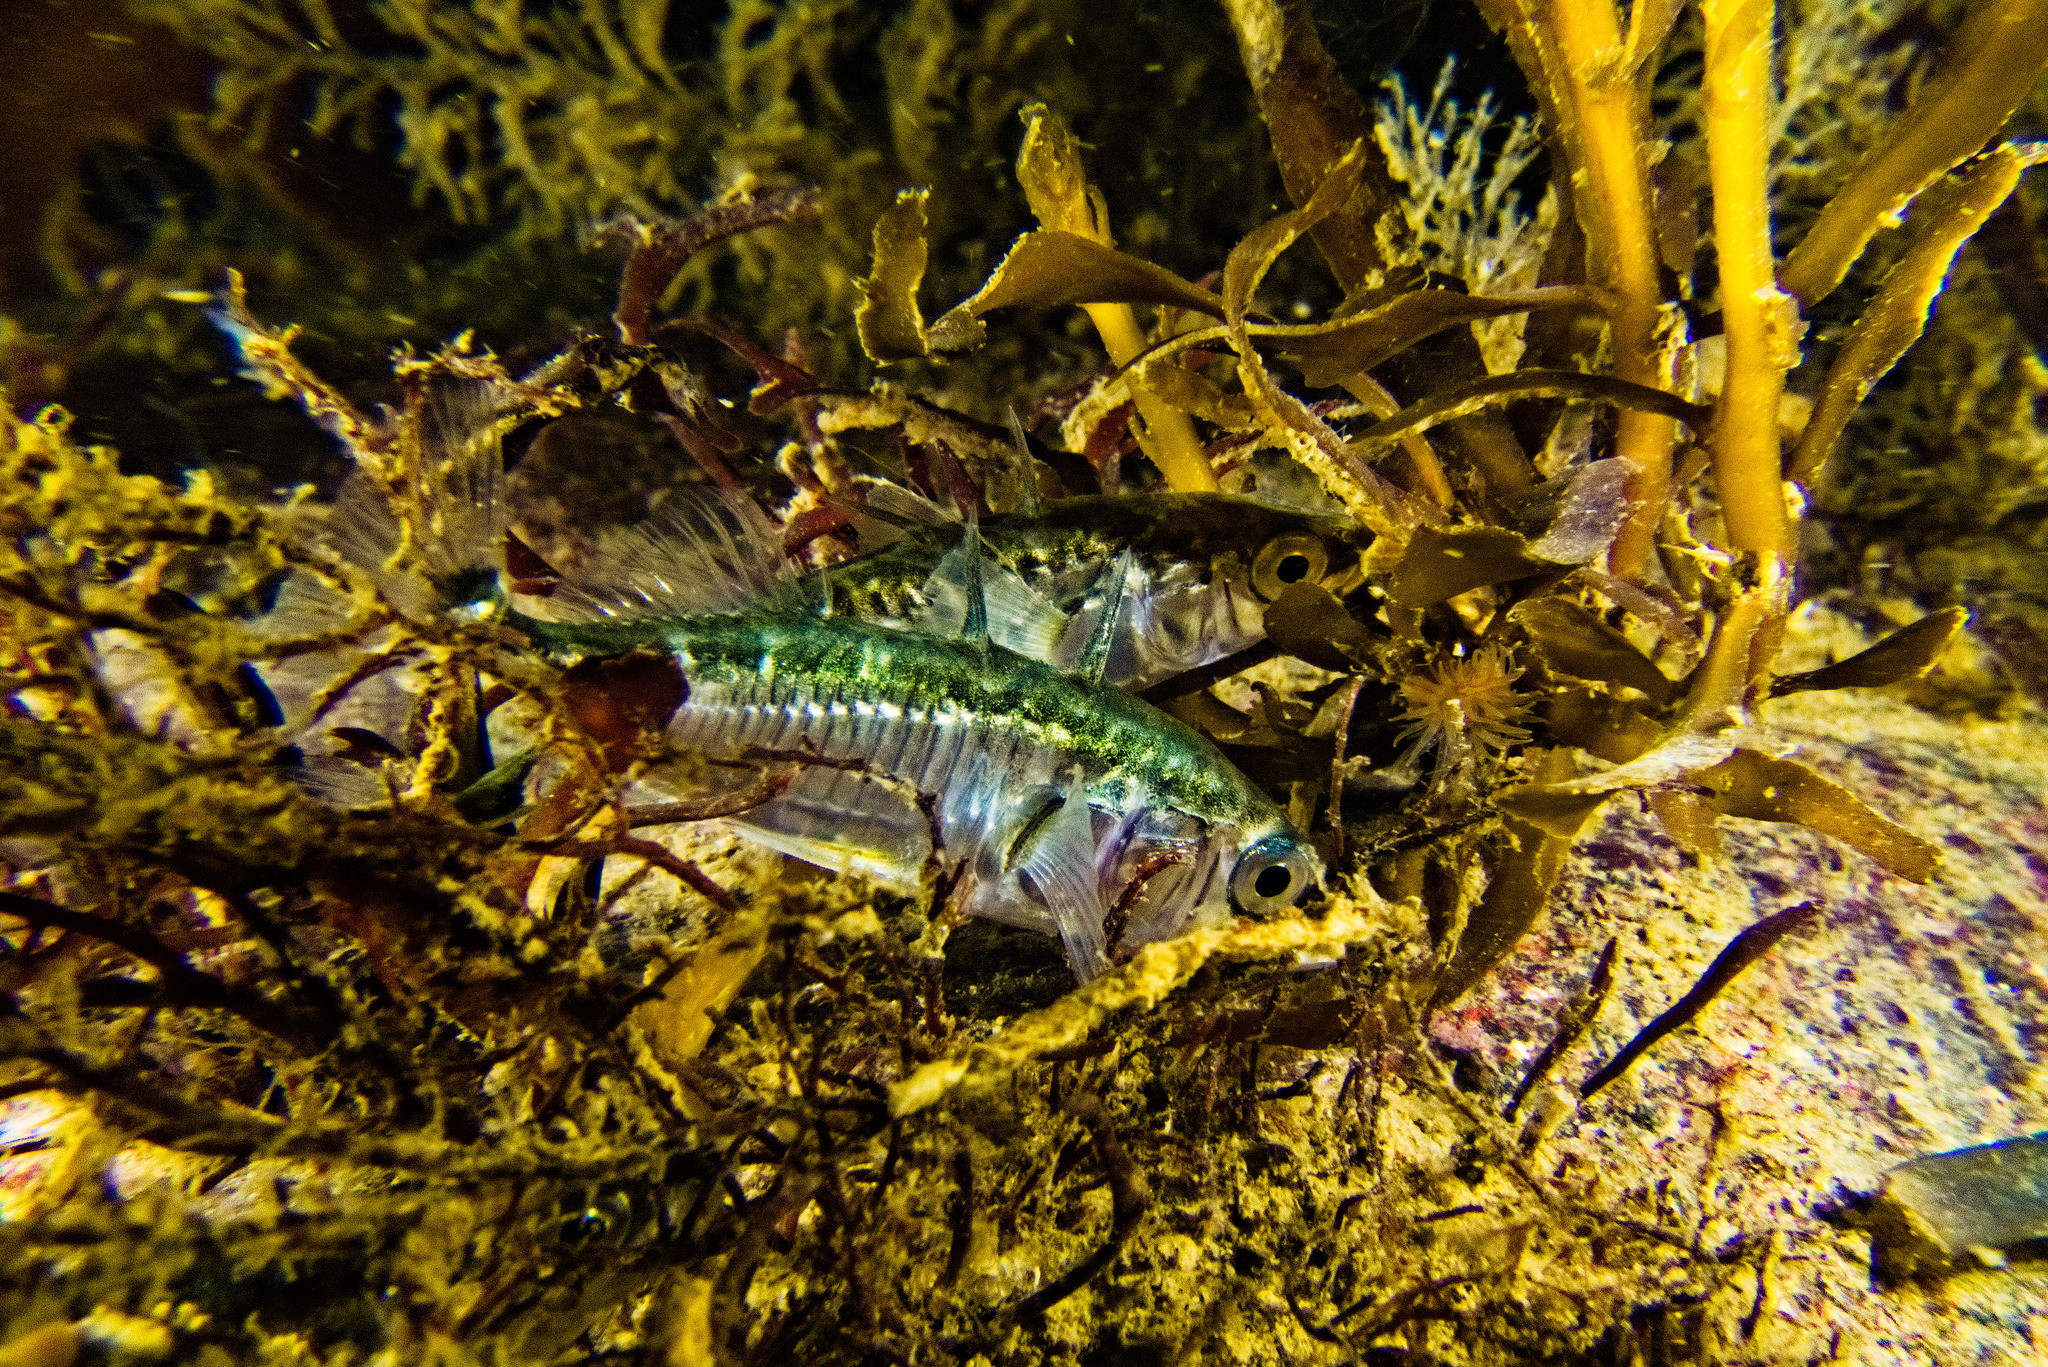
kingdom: Animalia
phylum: Chordata
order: Gasterosteiformes
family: Gasterosteidae
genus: Gasterosteus
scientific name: Gasterosteus aculeatus
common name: Three-spined stickleback
